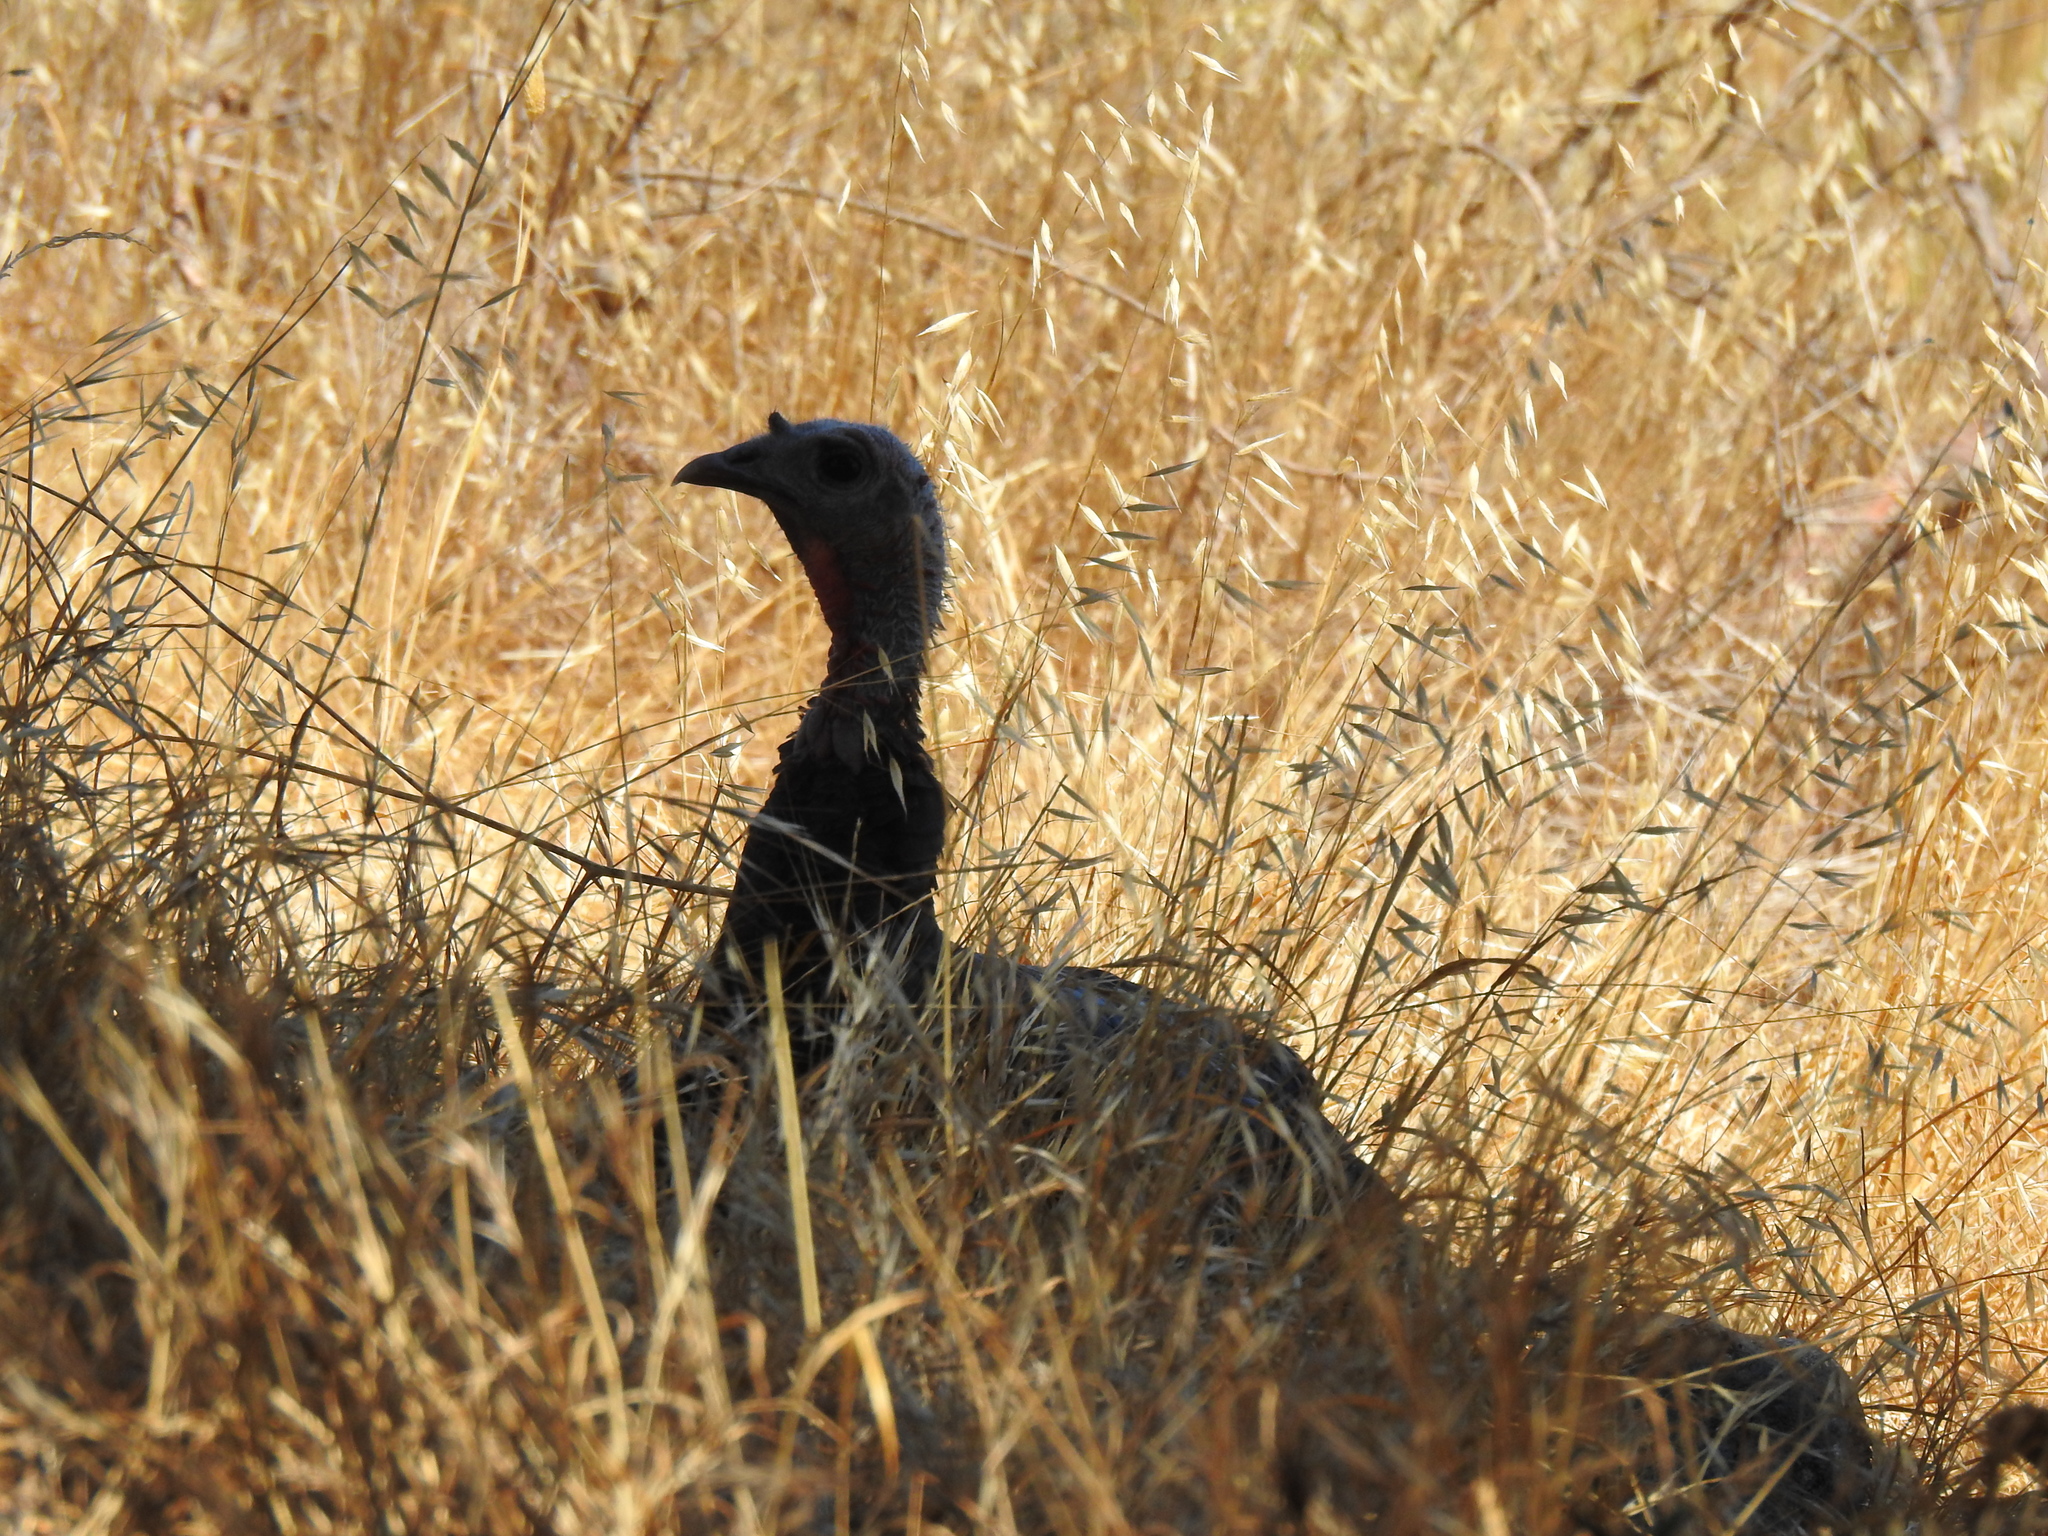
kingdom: Animalia
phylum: Chordata
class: Aves
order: Galliformes
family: Phasianidae
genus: Meleagris
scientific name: Meleagris gallopavo
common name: Wild turkey
